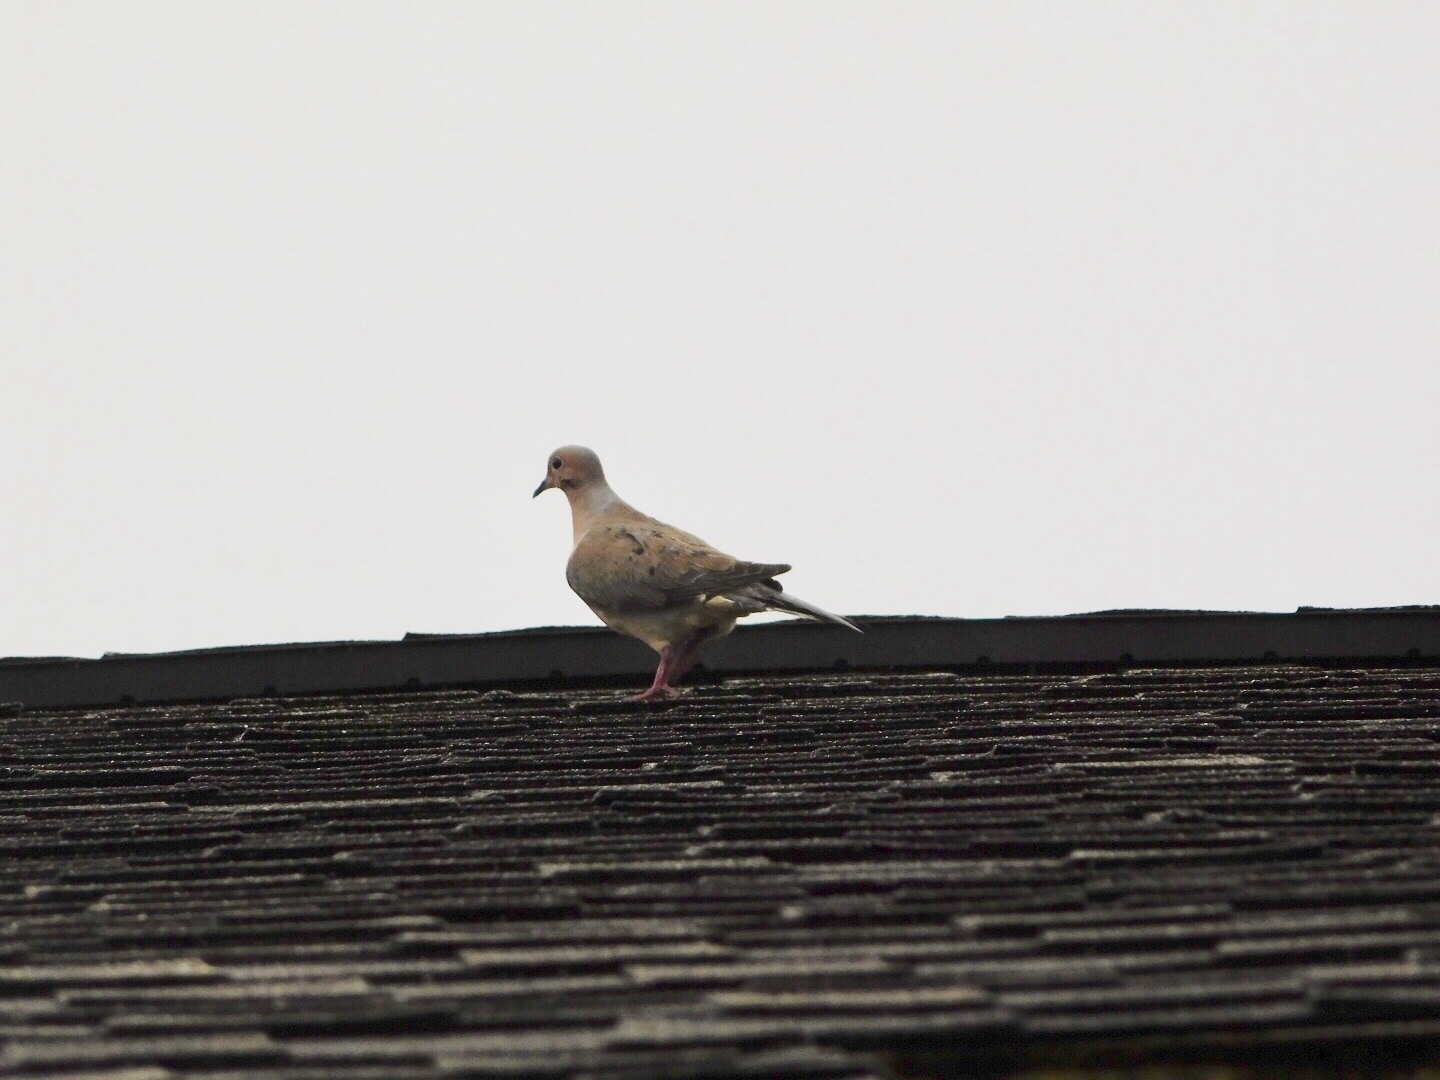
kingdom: Animalia
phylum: Chordata
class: Aves
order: Columbiformes
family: Columbidae
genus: Zenaida
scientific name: Zenaida macroura
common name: Mourning dove
